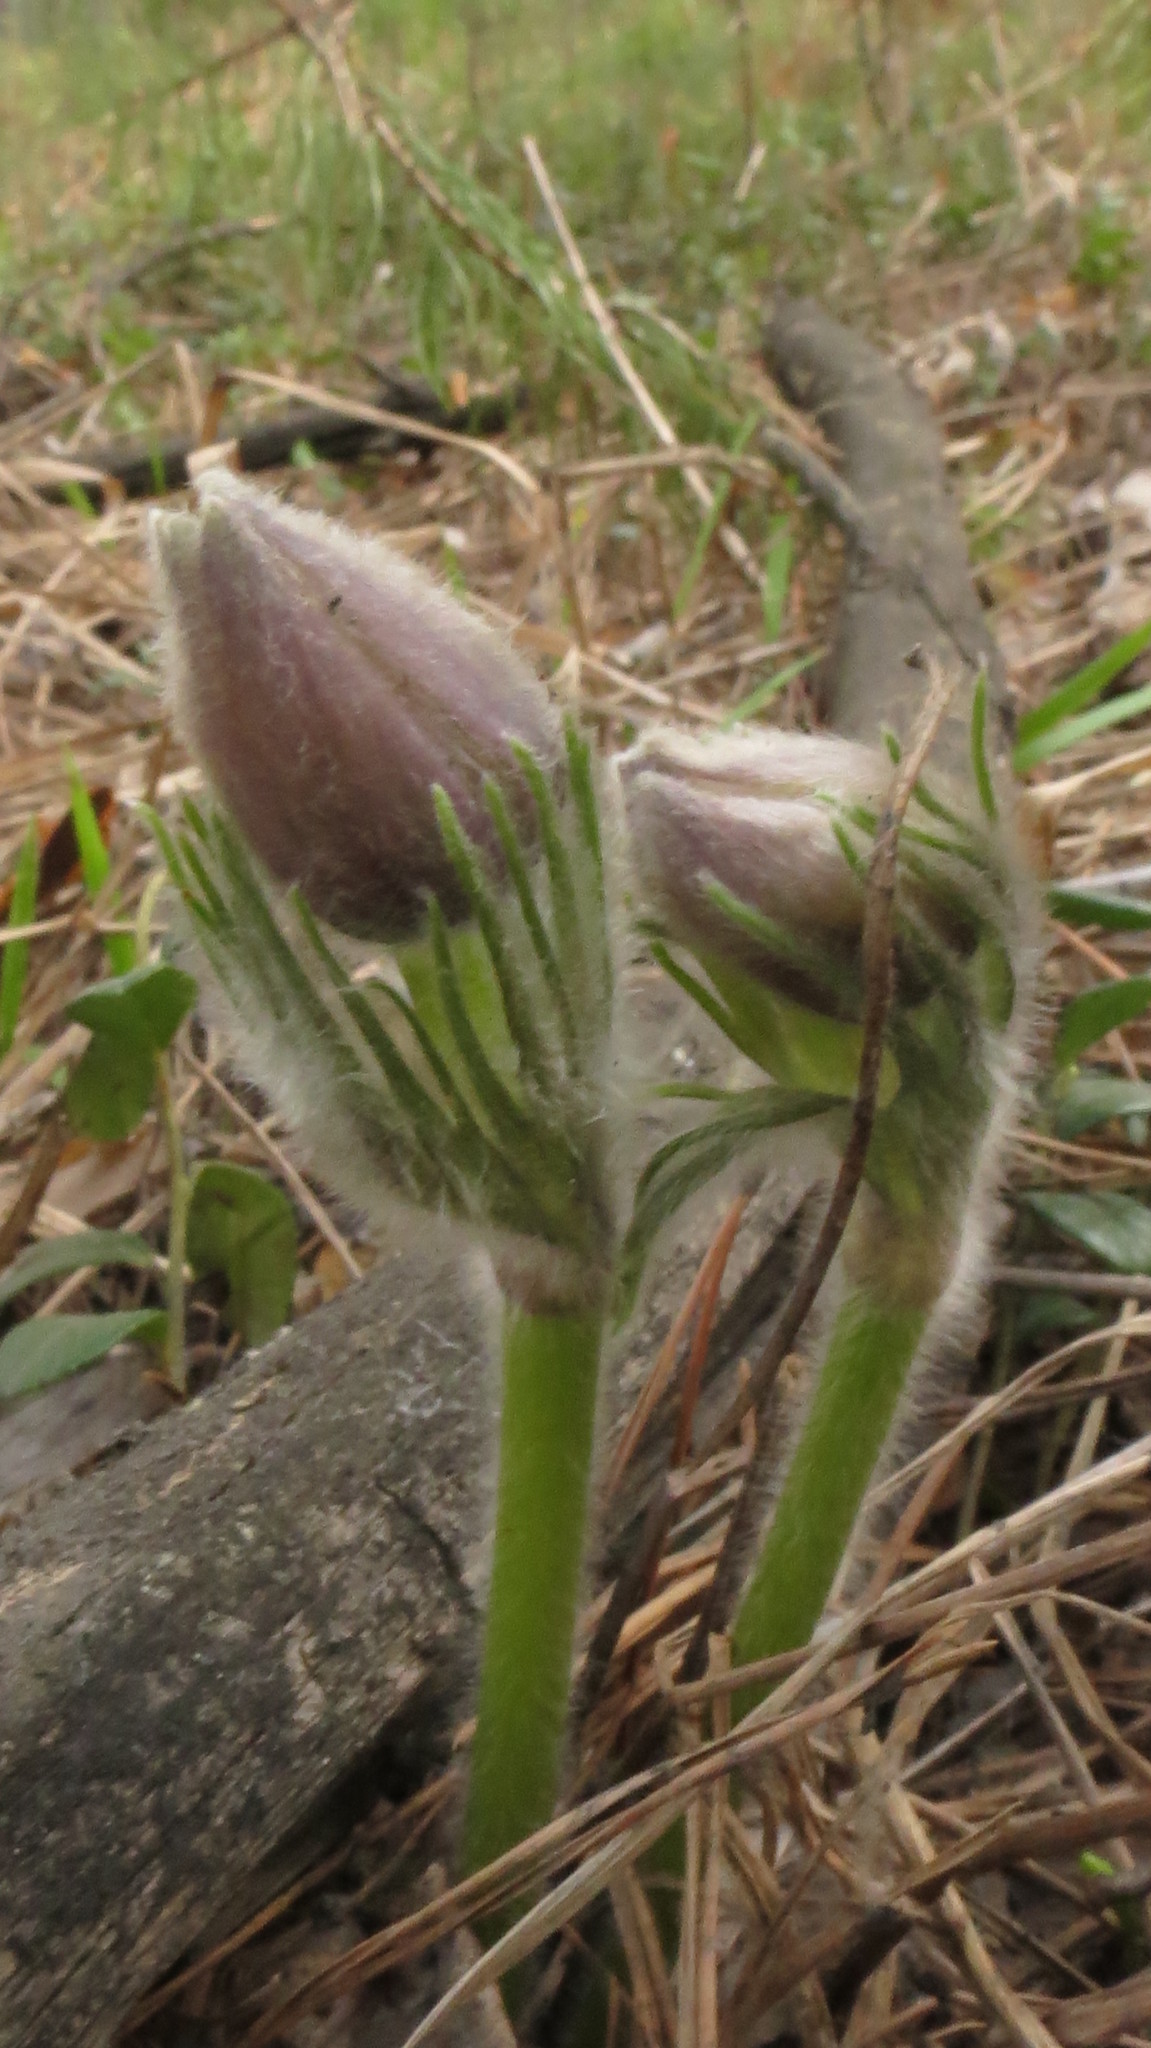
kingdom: Plantae
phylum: Tracheophyta
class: Magnoliopsida
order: Ranunculales
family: Ranunculaceae
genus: Pulsatilla
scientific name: Pulsatilla patens
